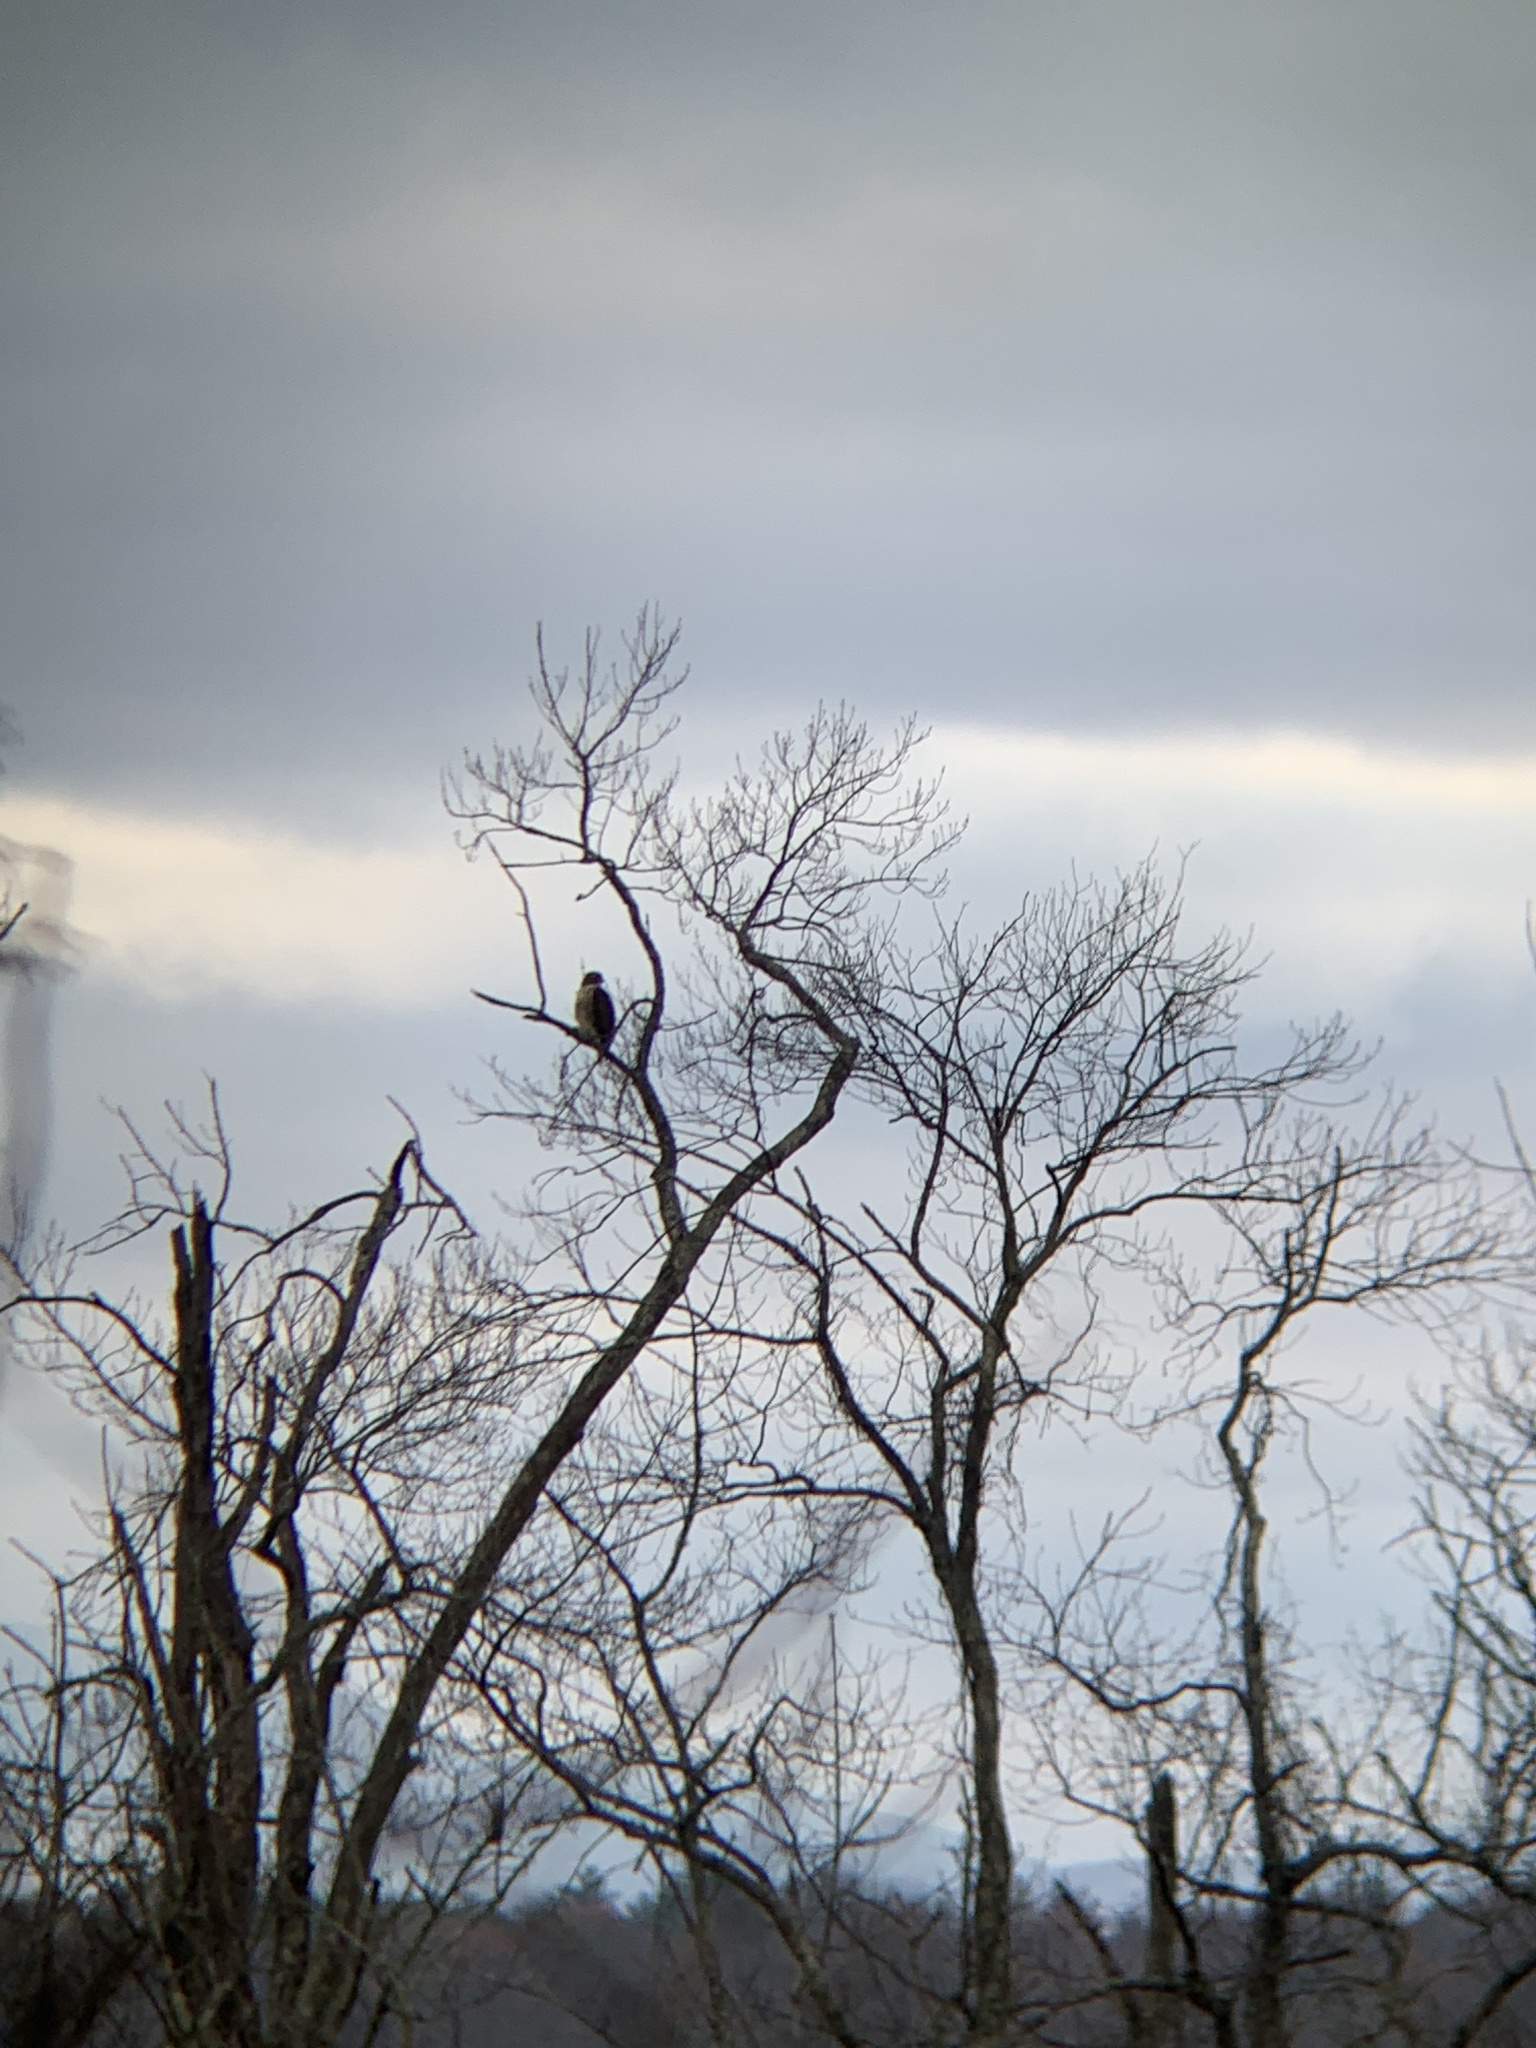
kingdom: Animalia
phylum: Chordata
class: Aves
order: Accipitriformes
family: Accipitridae
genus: Buteo
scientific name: Buteo jamaicensis
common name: Red-tailed hawk
